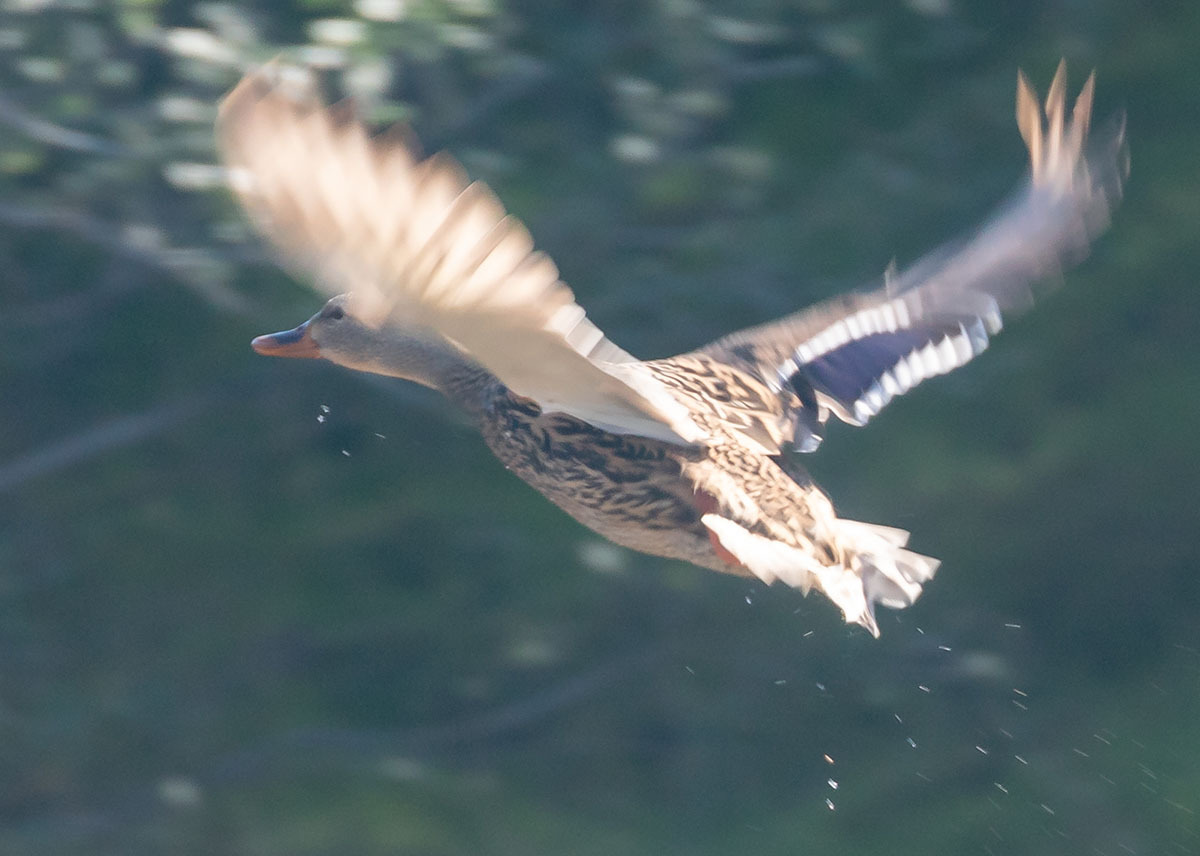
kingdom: Animalia
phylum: Chordata
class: Aves
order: Anseriformes
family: Anatidae
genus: Anas
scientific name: Anas platyrhynchos
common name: Mallard
